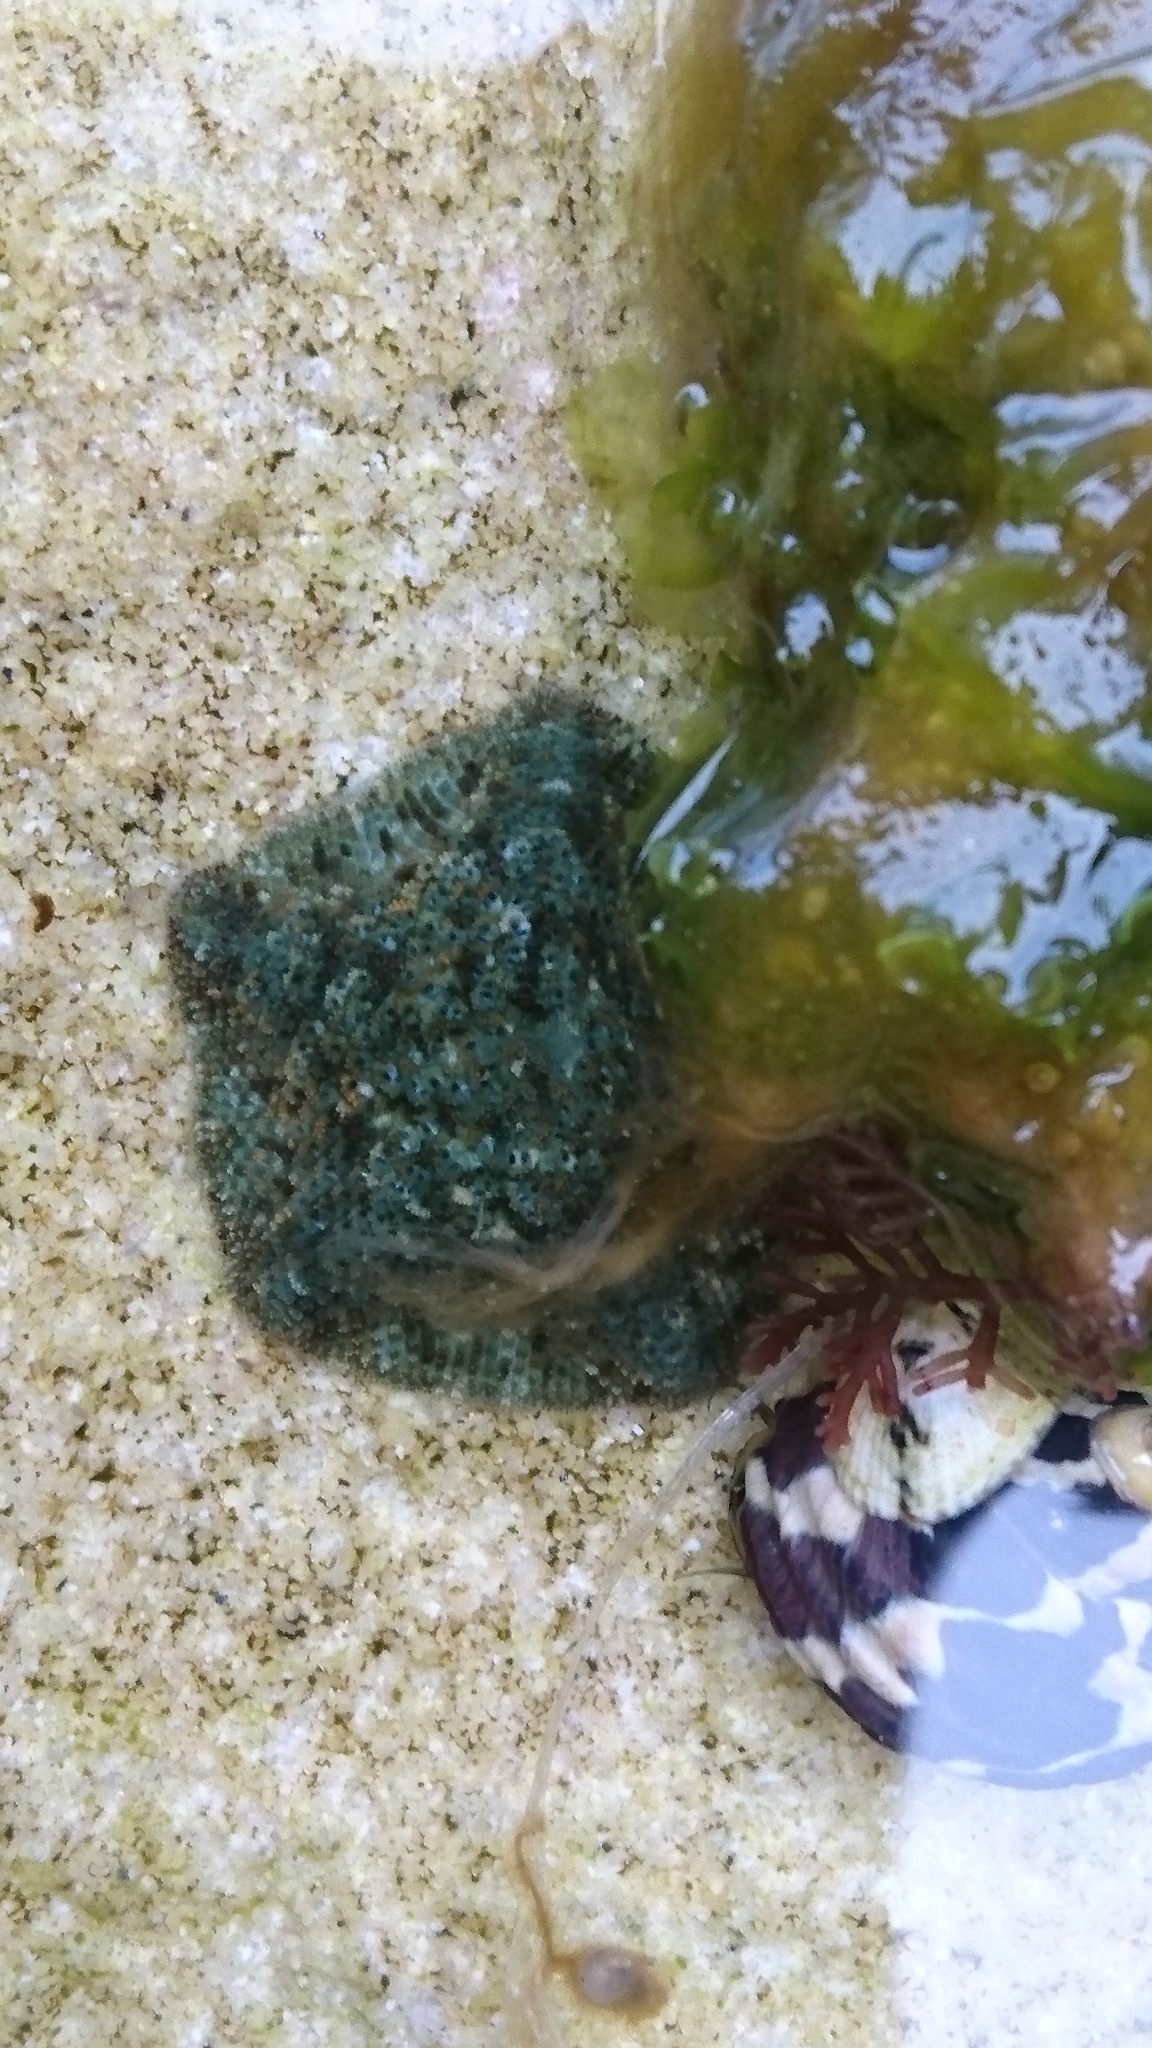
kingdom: Animalia
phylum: Echinodermata
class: Asteroidea
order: Valvatida
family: Asterinidae
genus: Parvulastra
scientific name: Parvulastra exigua
